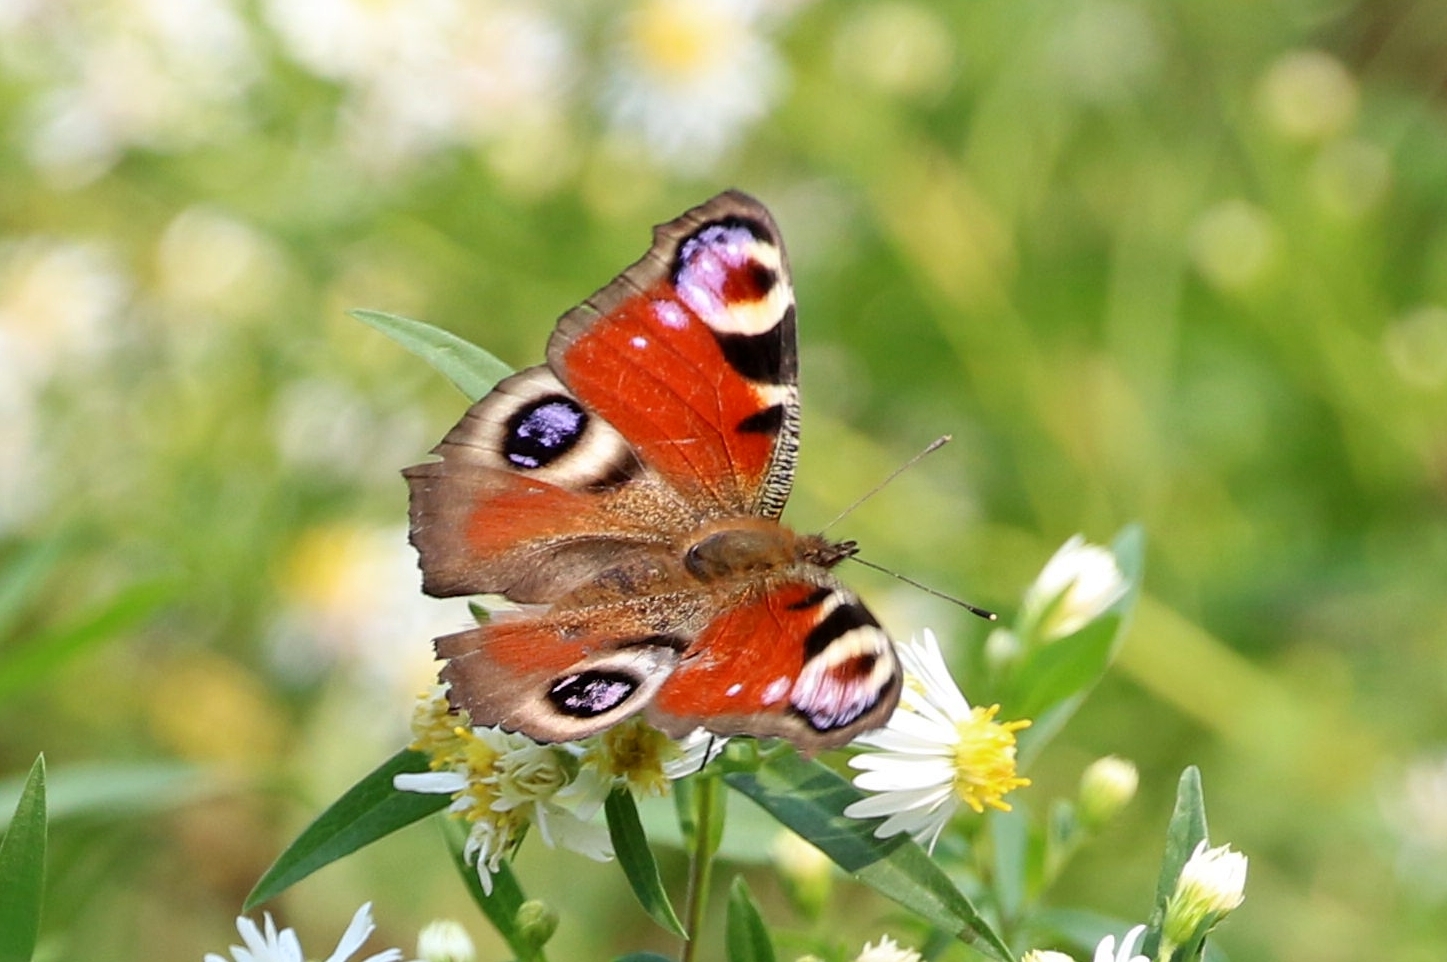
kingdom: Animalia
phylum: Arthropoda
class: Insecta
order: Lepidoptera
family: Nymphalidae
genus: Aglais
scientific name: Aglais io
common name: Peacock
